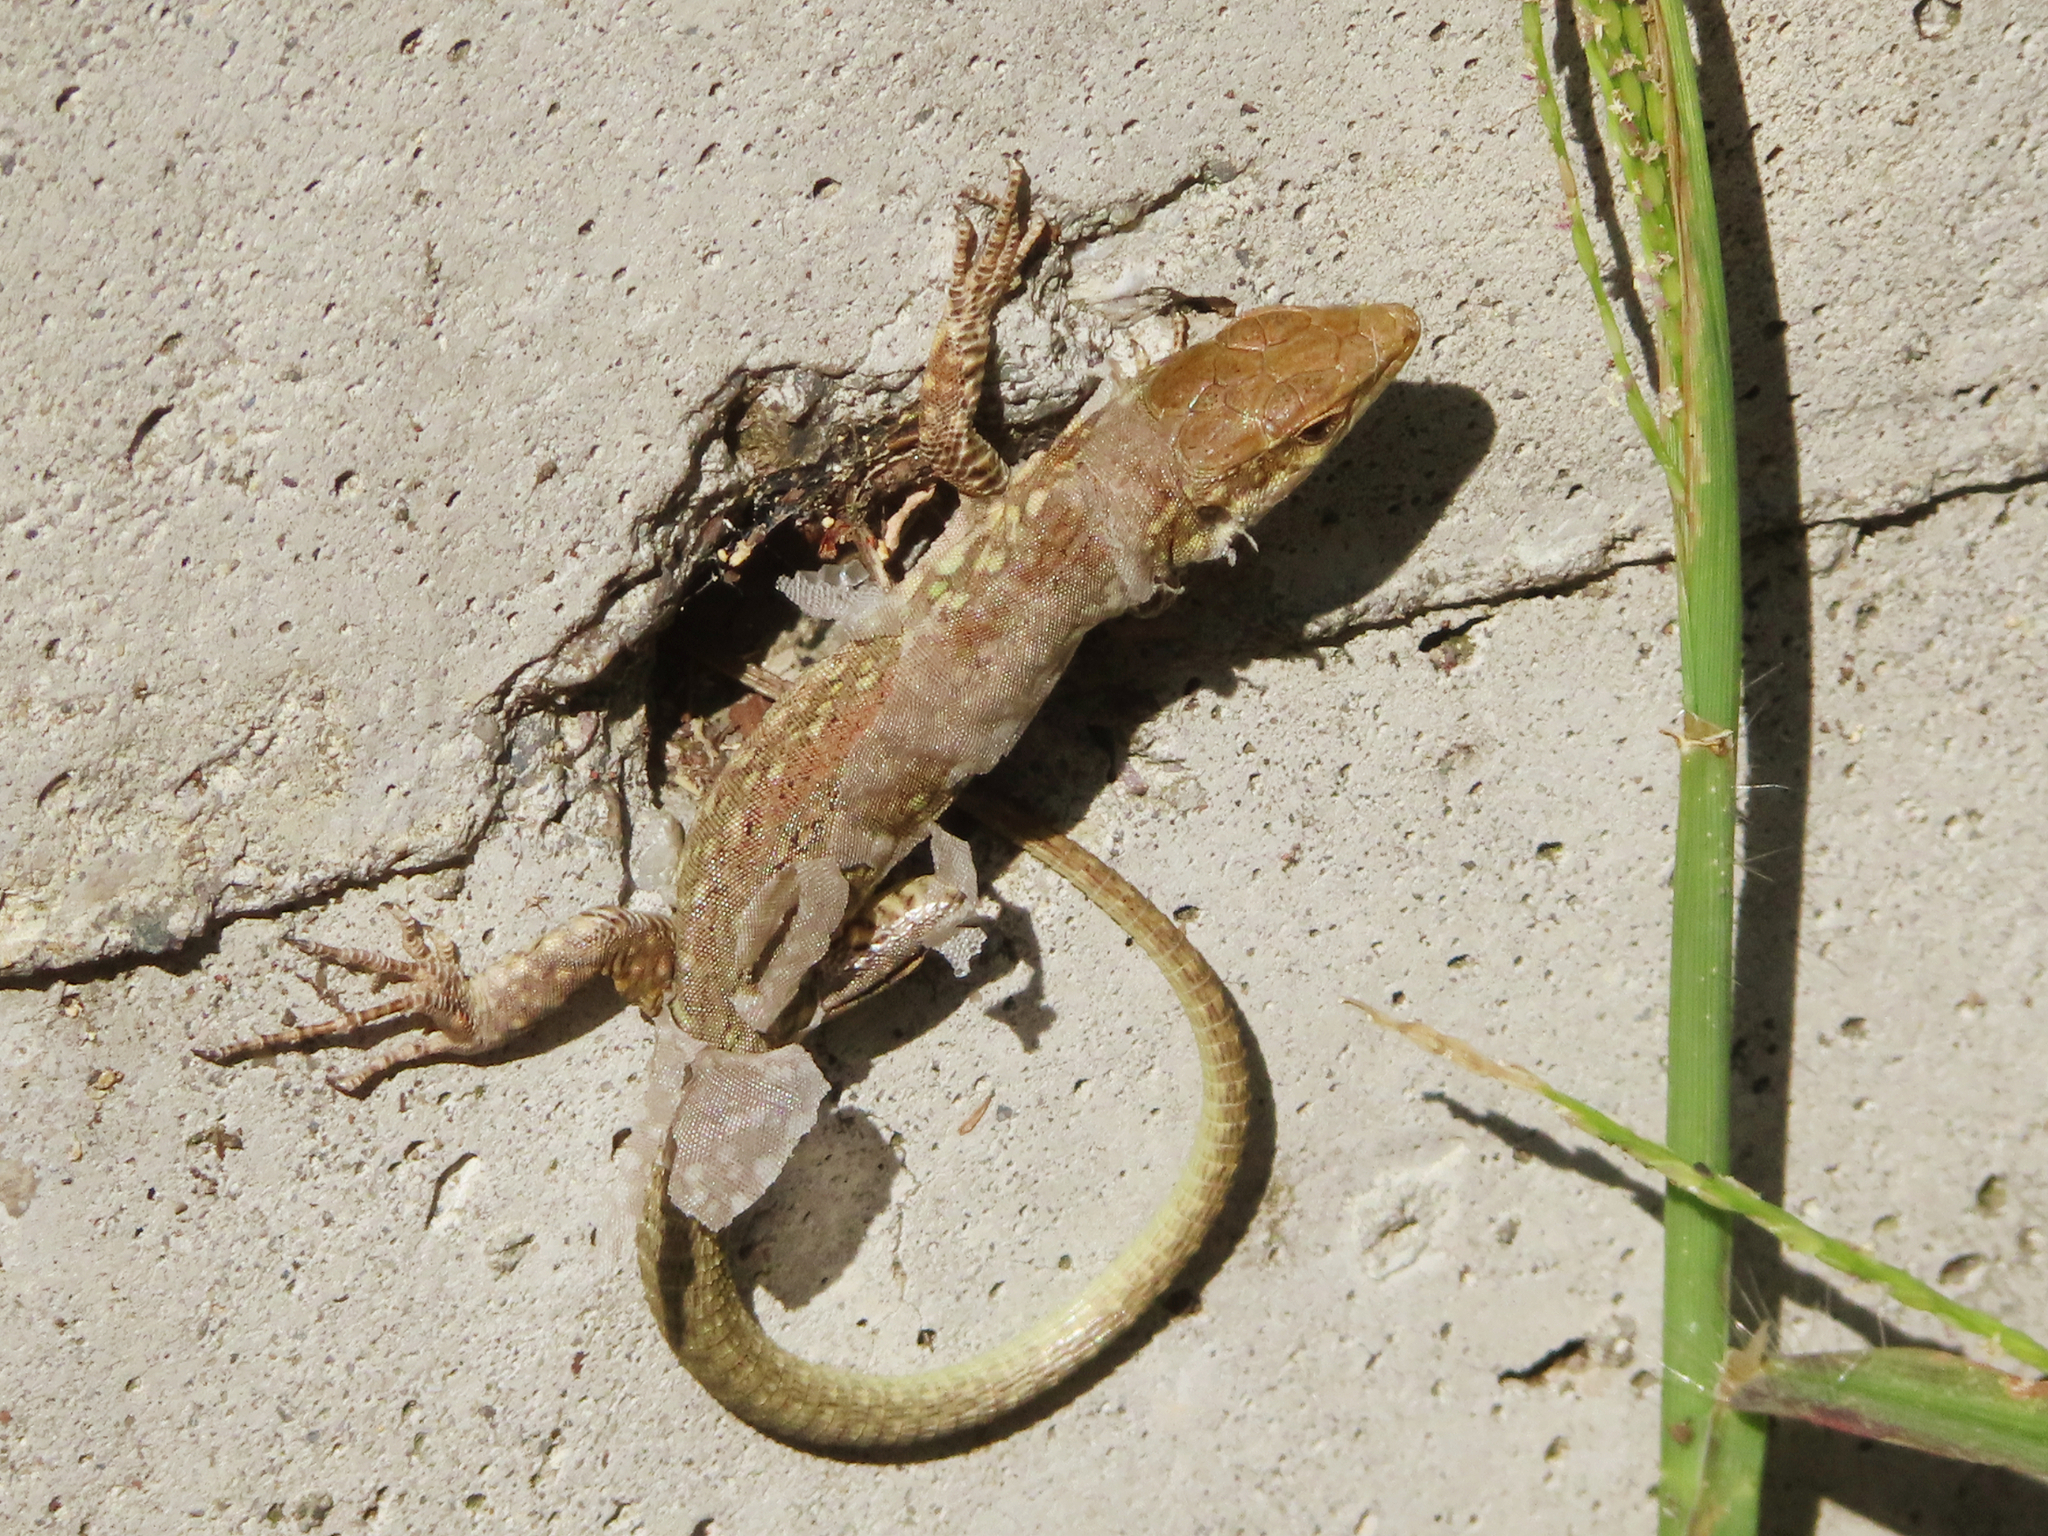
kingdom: Animalia
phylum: Chordata
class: Squamata
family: Lacertidae
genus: Podarcis
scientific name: Podarcis siculus
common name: Italian wall lizard
